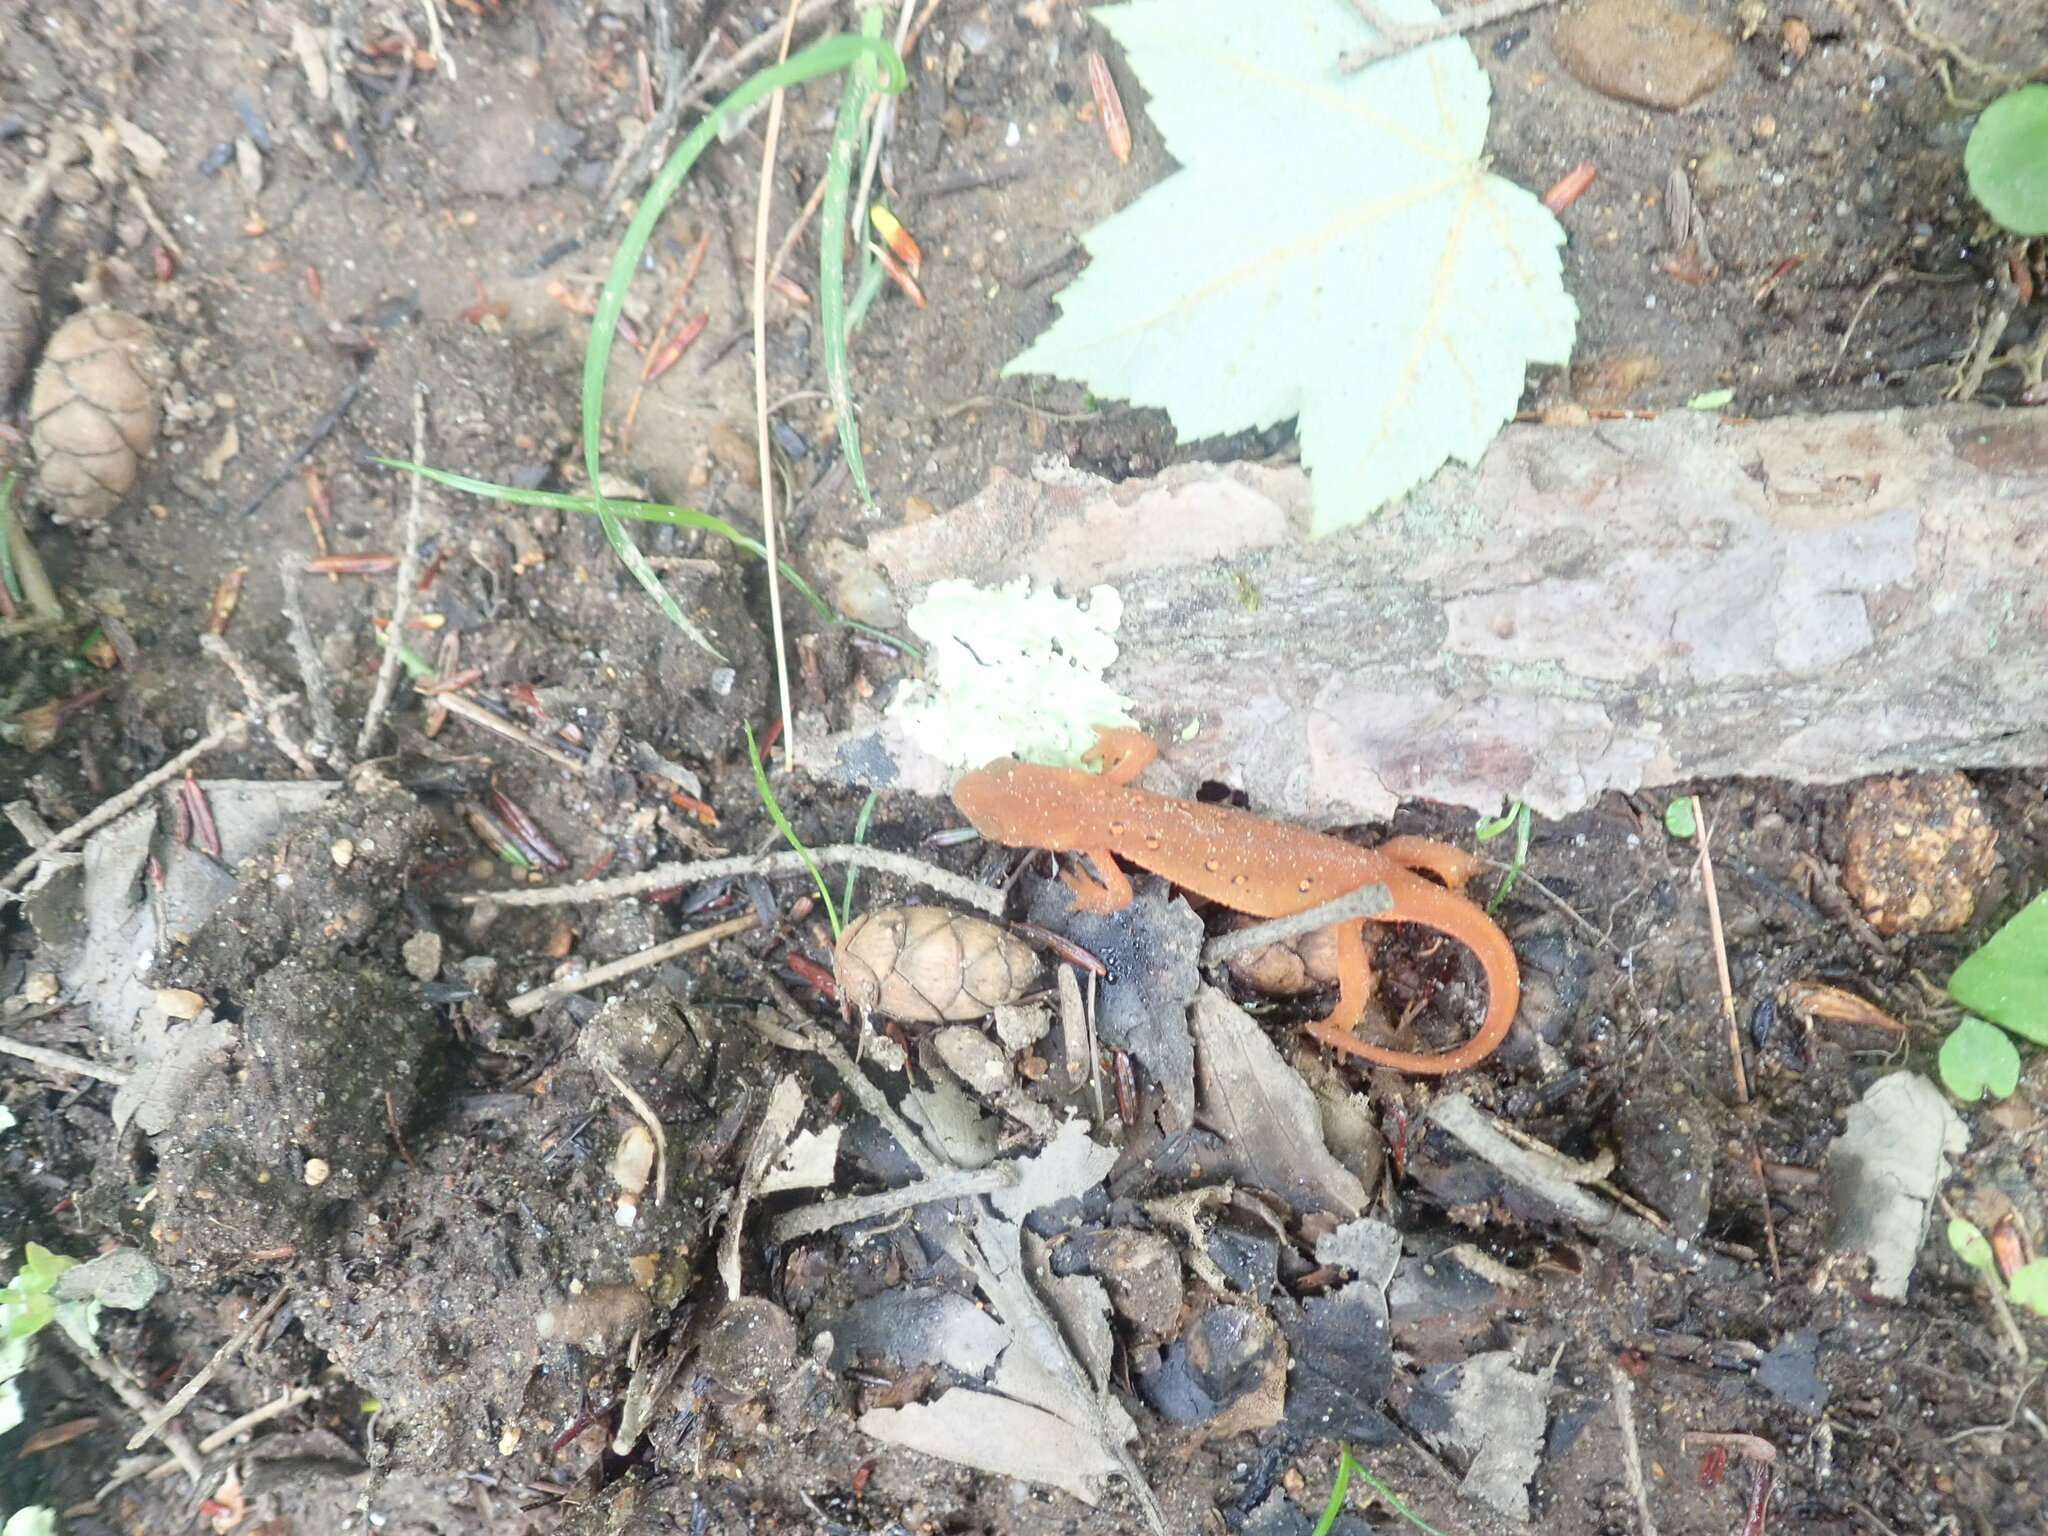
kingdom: Animalia
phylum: Chordata
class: Amphibia
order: Caudata
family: Salamandridae
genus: Notophthalmus
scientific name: Notophthalmus viridescens
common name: Eastern newt
